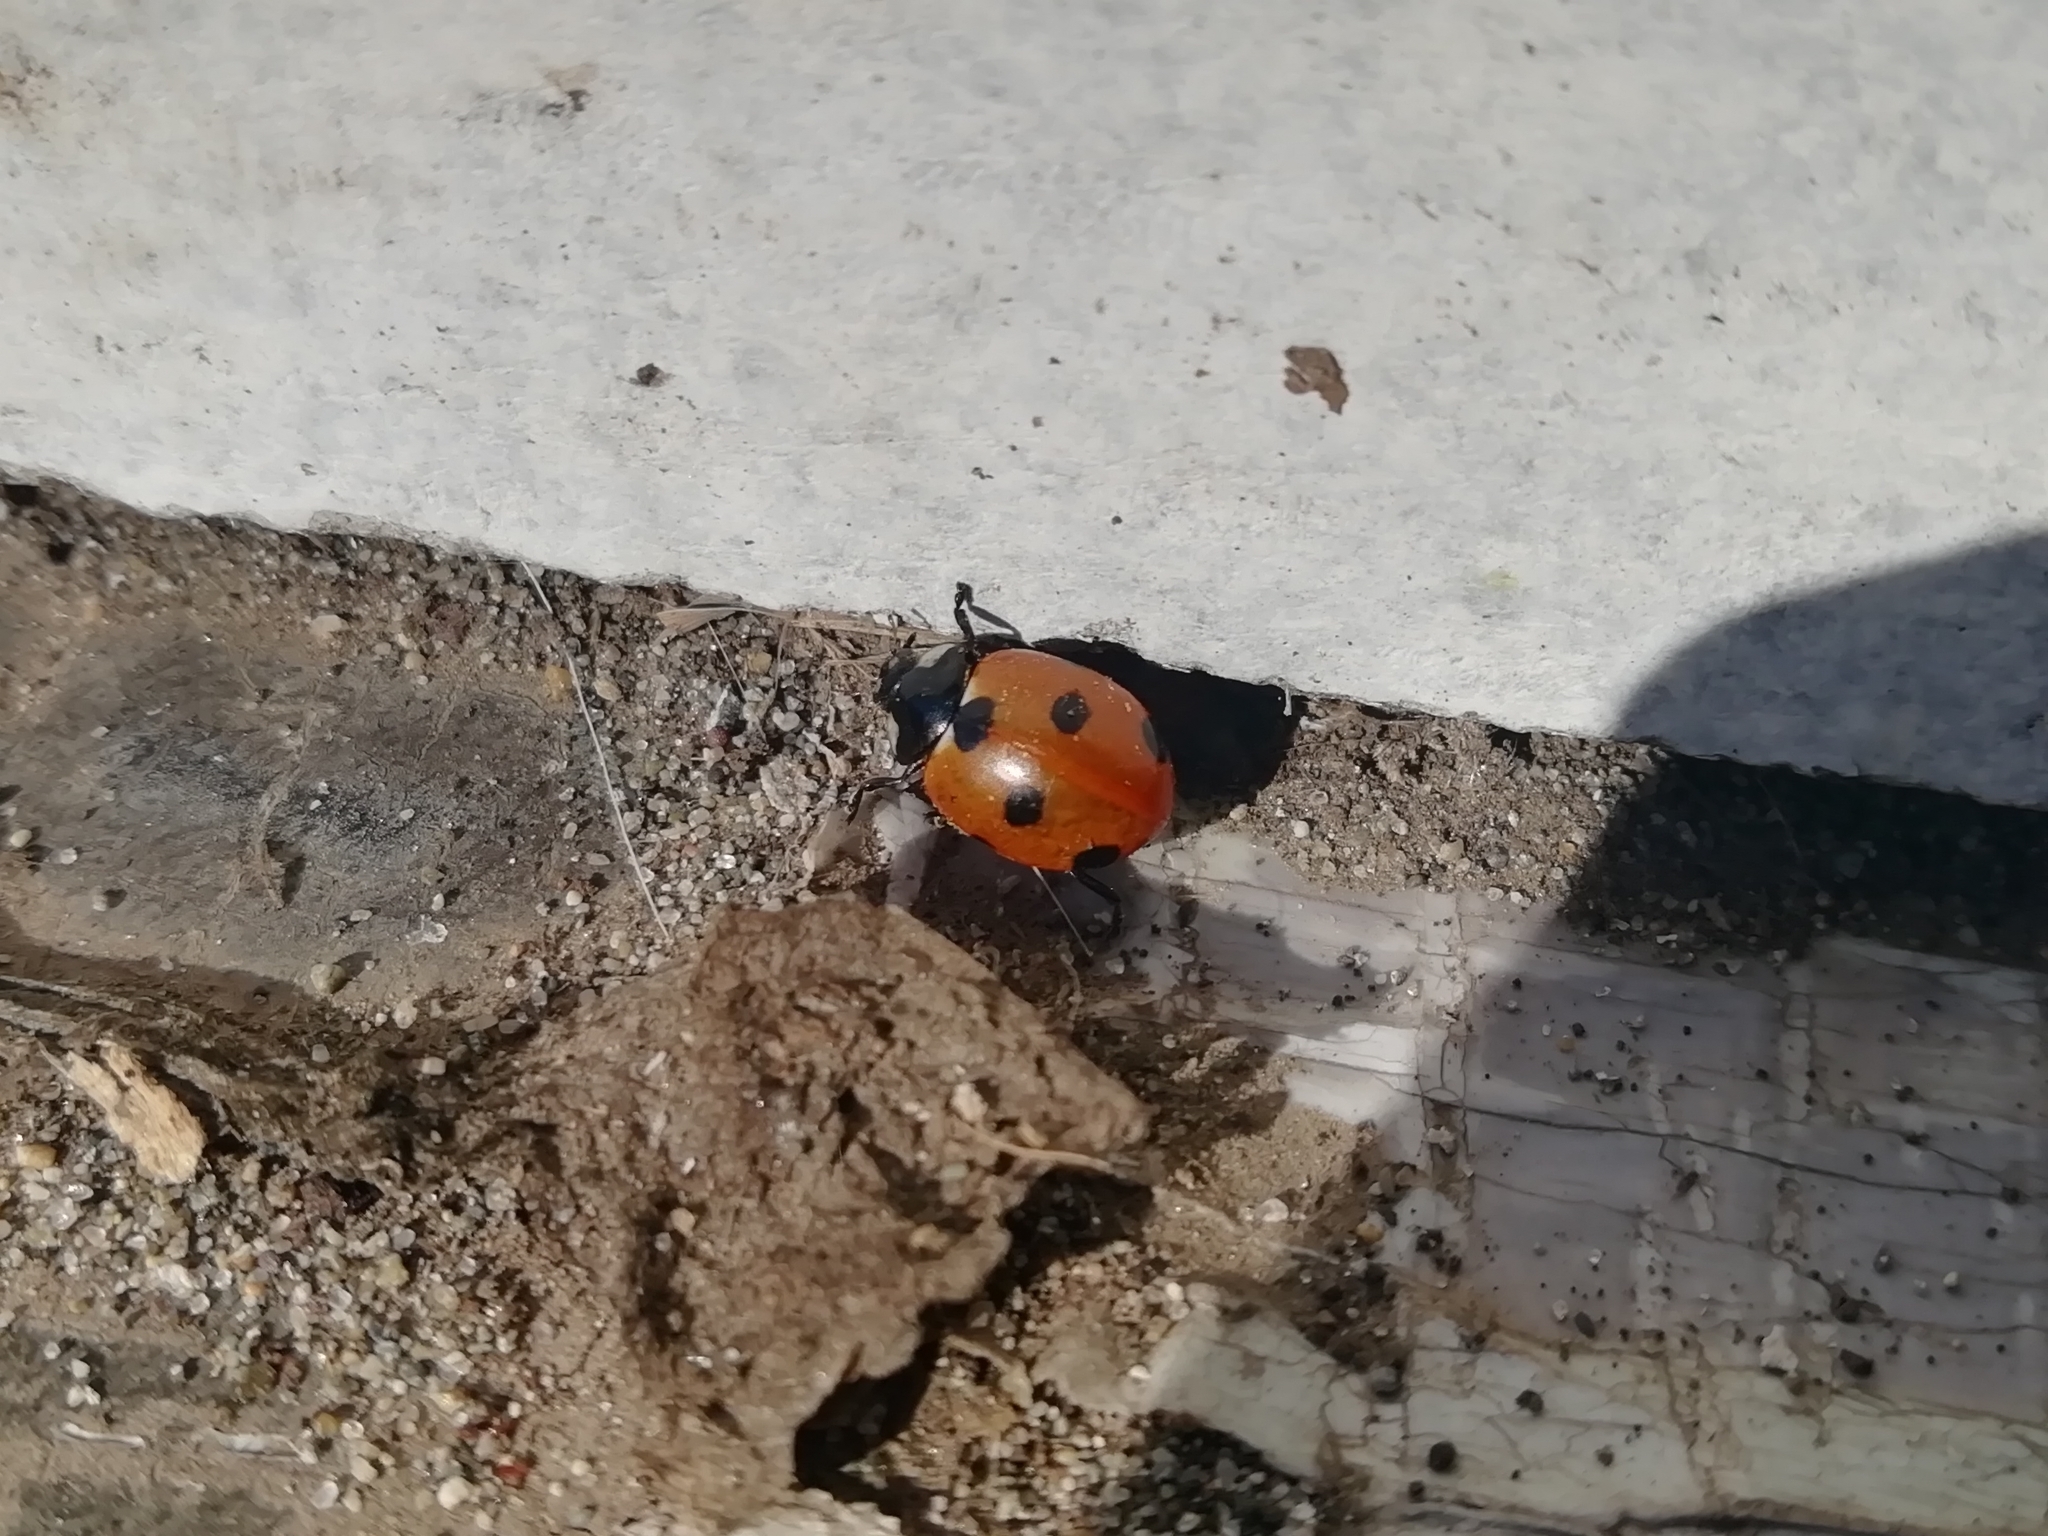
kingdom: Animalia
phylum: Arthropoda
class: Insecta
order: Coleoptera
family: Coccinellidae
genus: Coccinella
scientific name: Coccinella septempunctata
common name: Sevenspotted lady beetle
